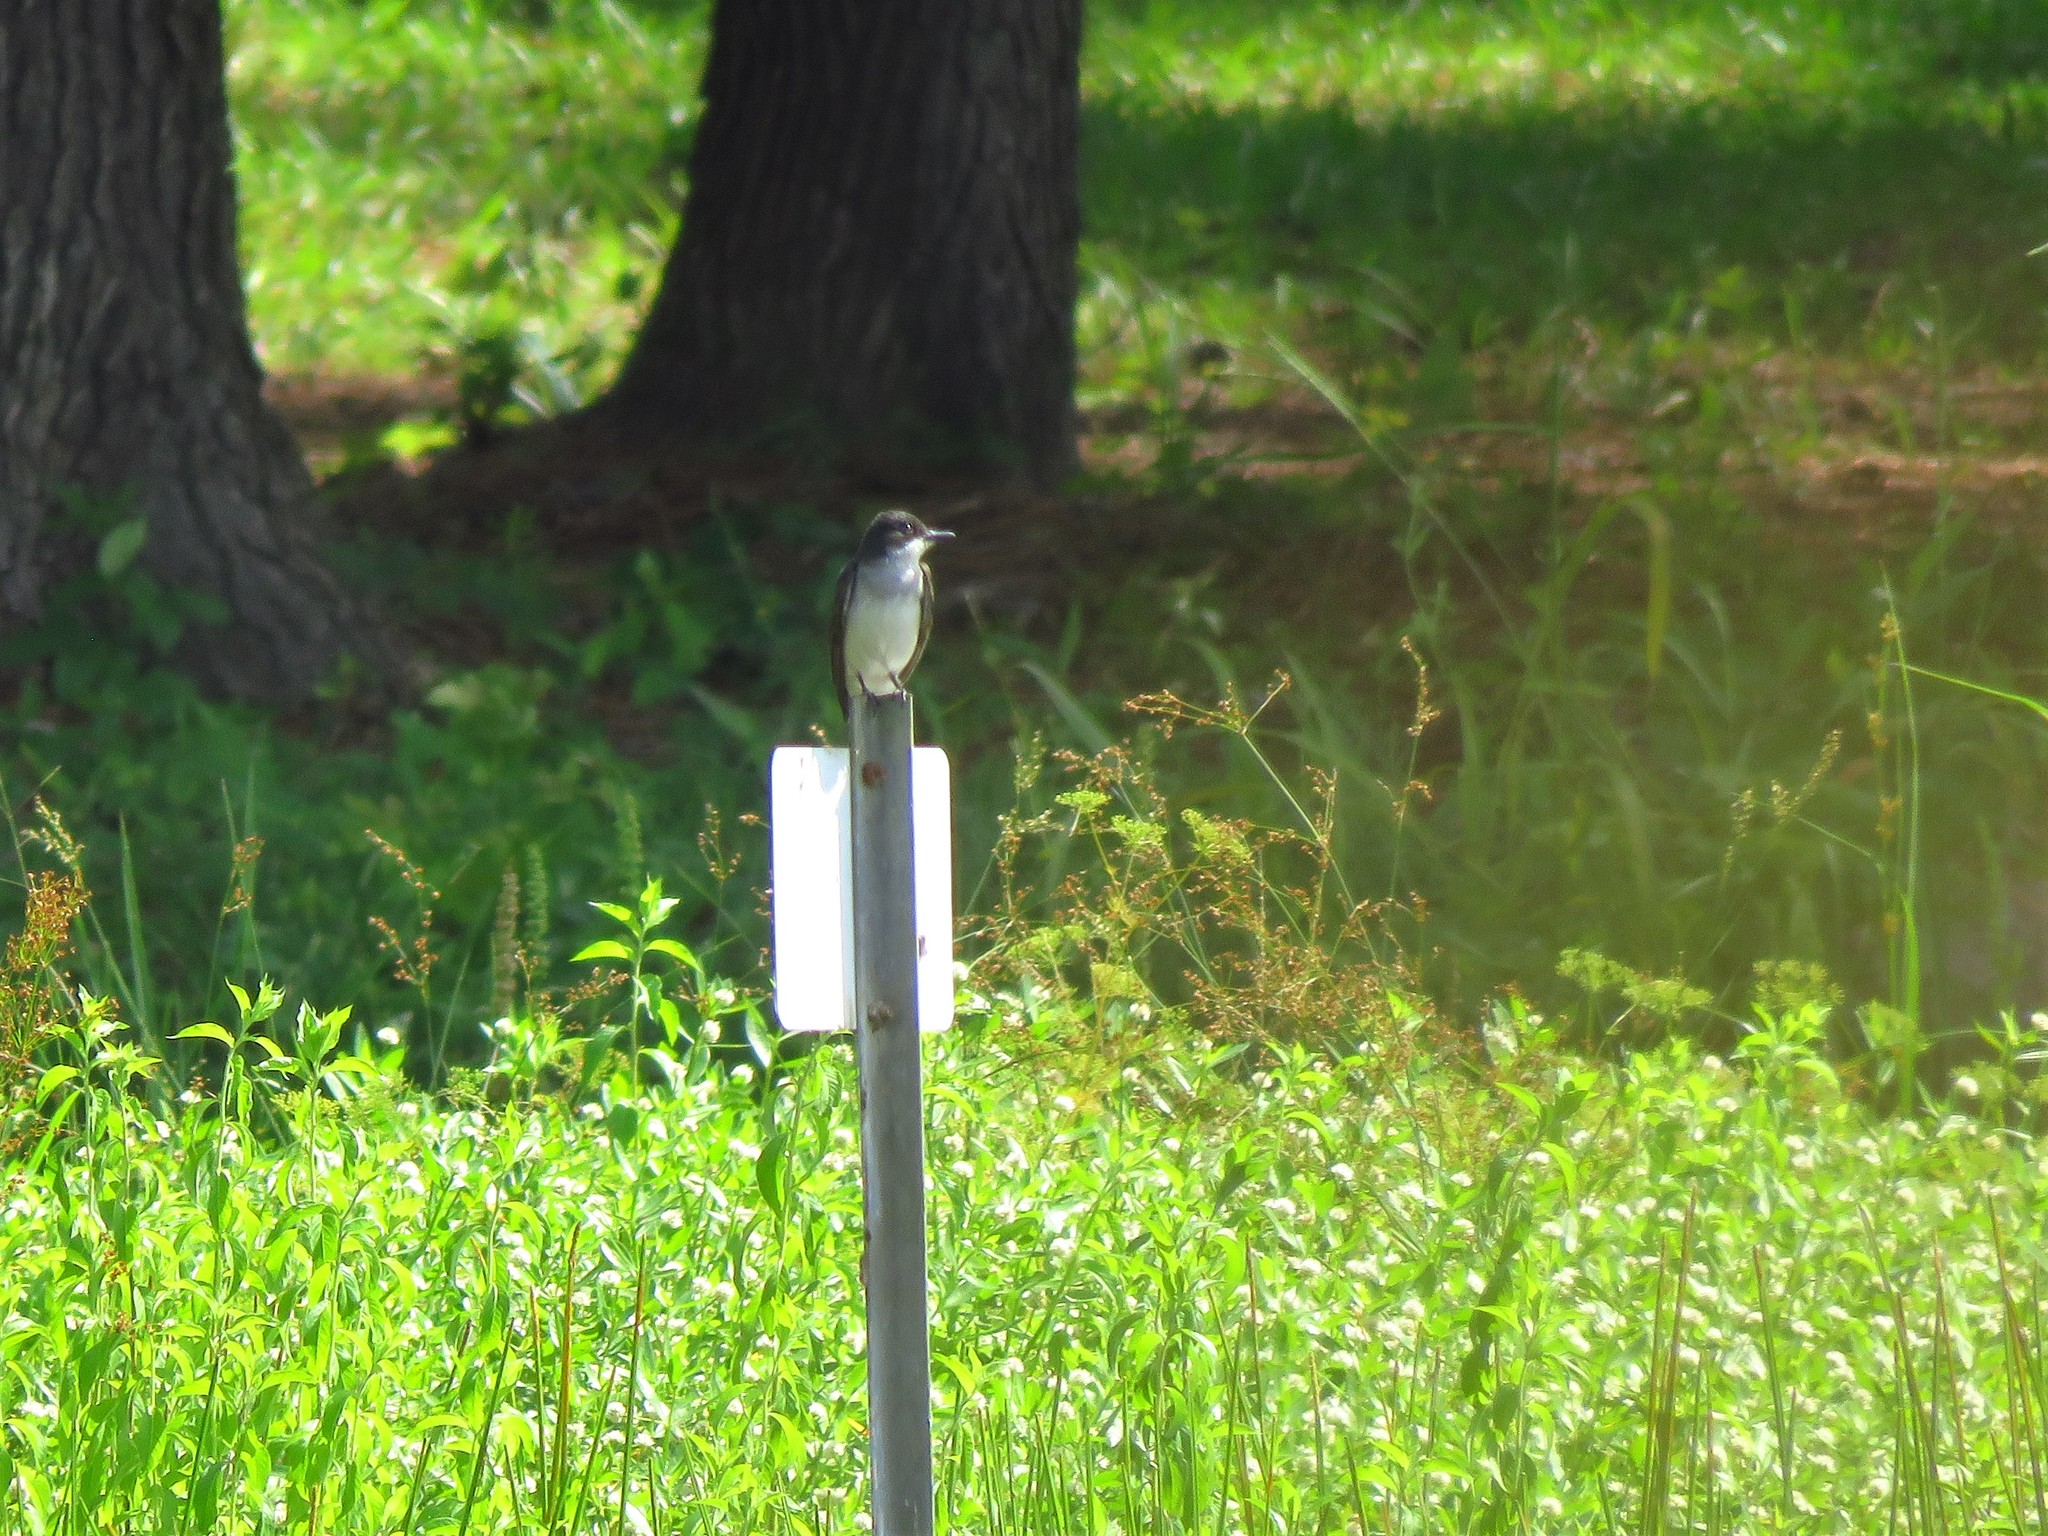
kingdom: Animalia
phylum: Chordata
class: Aves
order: Passeriformes
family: Tyrannidae
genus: Tyrannus
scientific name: Tyrannus tyrannus
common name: Eastern kingbird
